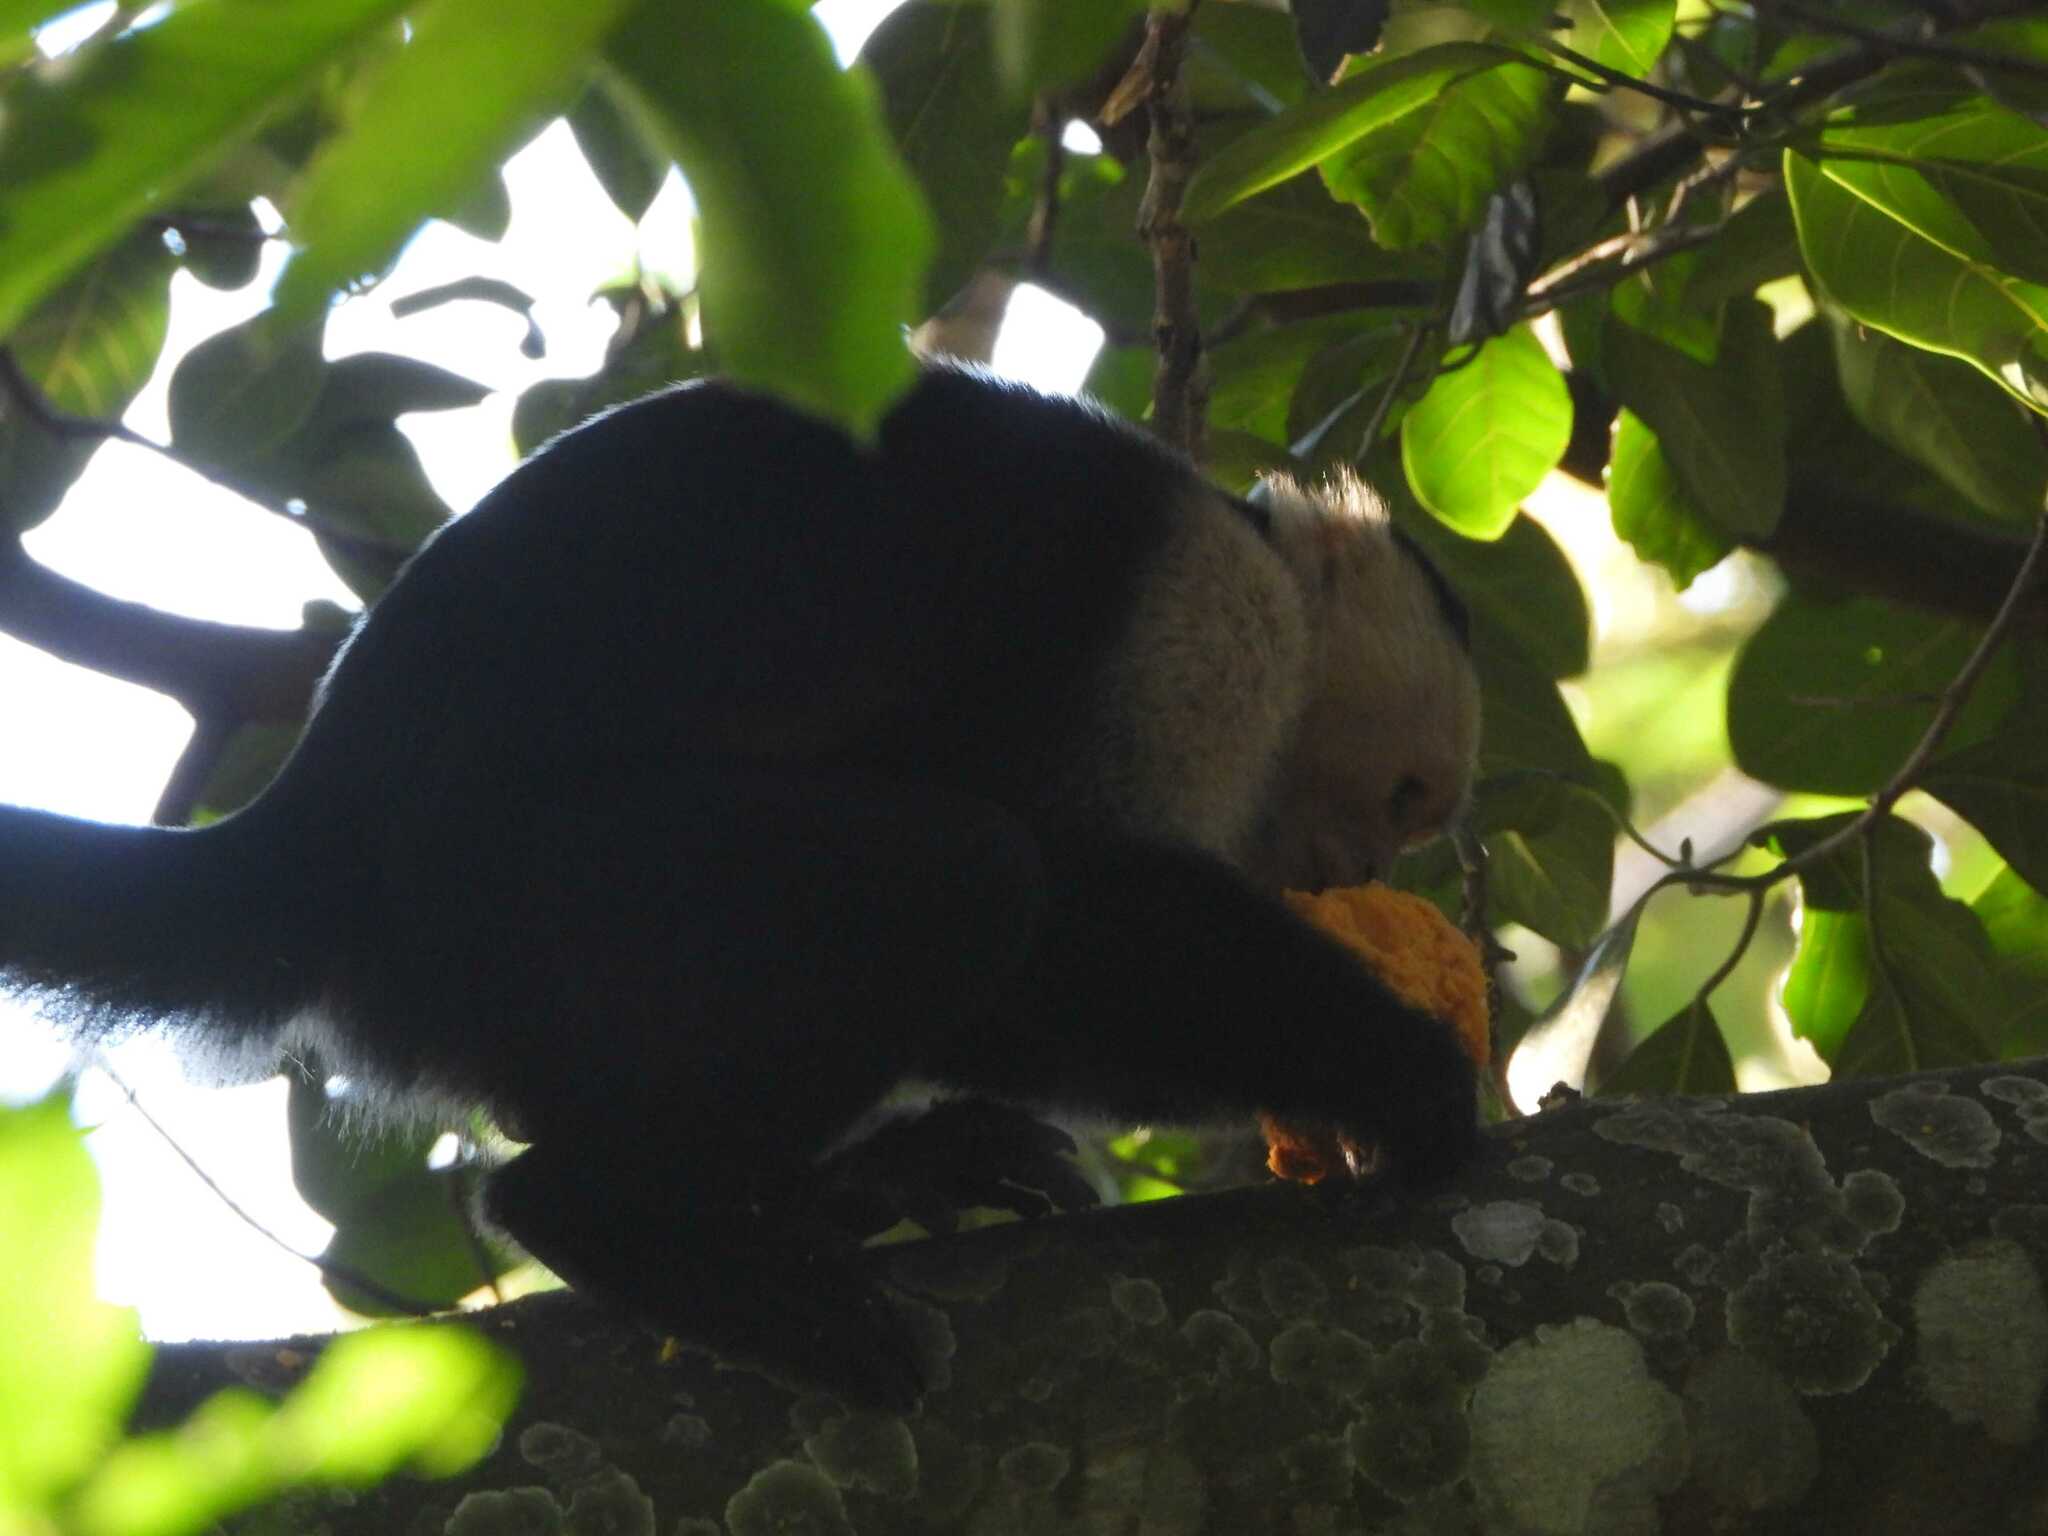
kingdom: Animalia
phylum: Chordata
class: Mammalia
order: Primates
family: Cebidae
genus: Cebus
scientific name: Cebus imitator
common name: Panamanian white-faced capuchin
